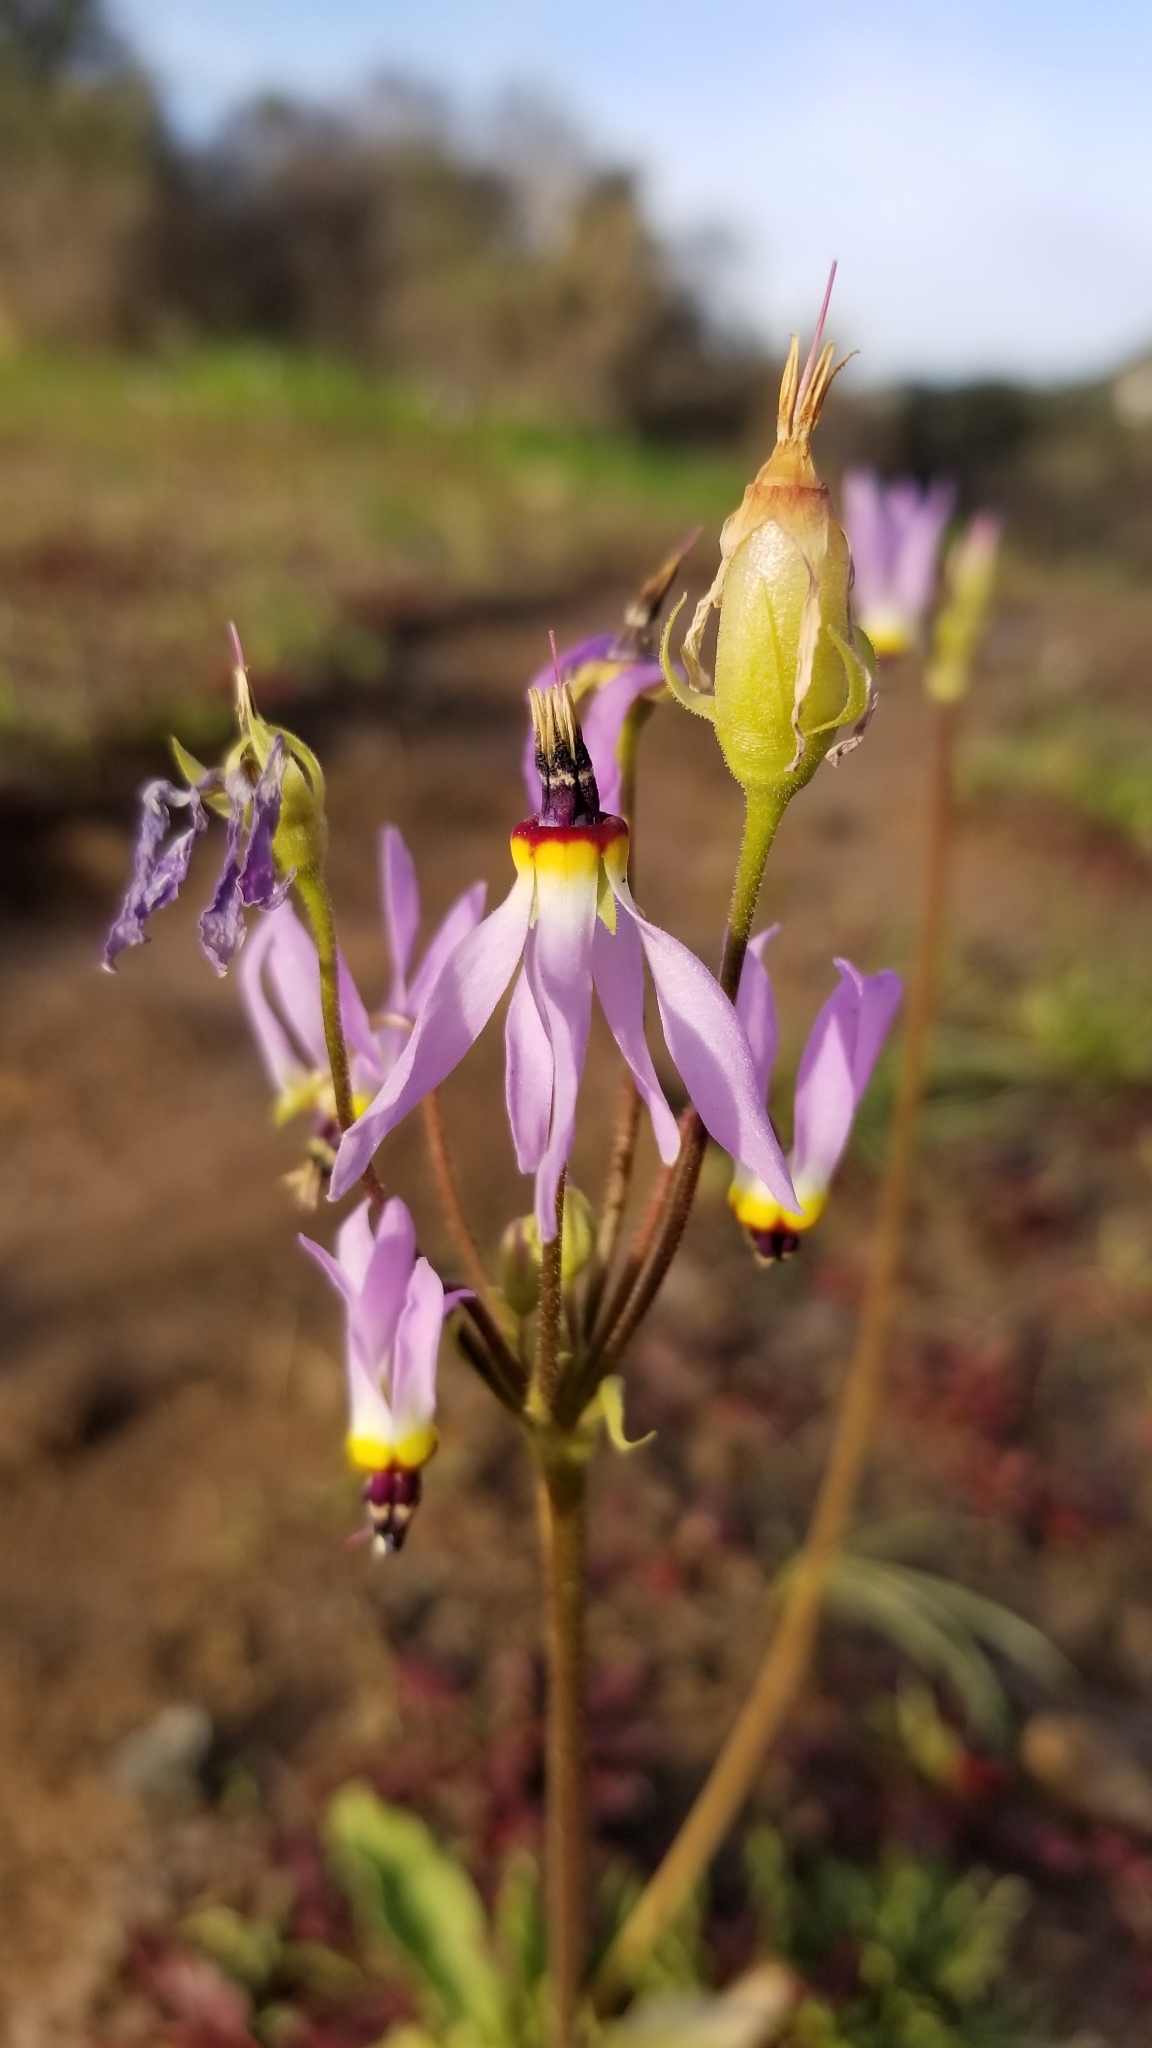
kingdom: Plantae
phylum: Tracheophyta
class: Magnoliopsida
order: Ericales
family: Primulaceae
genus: Dodecatheon
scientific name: Dodecatheon clevelandii
